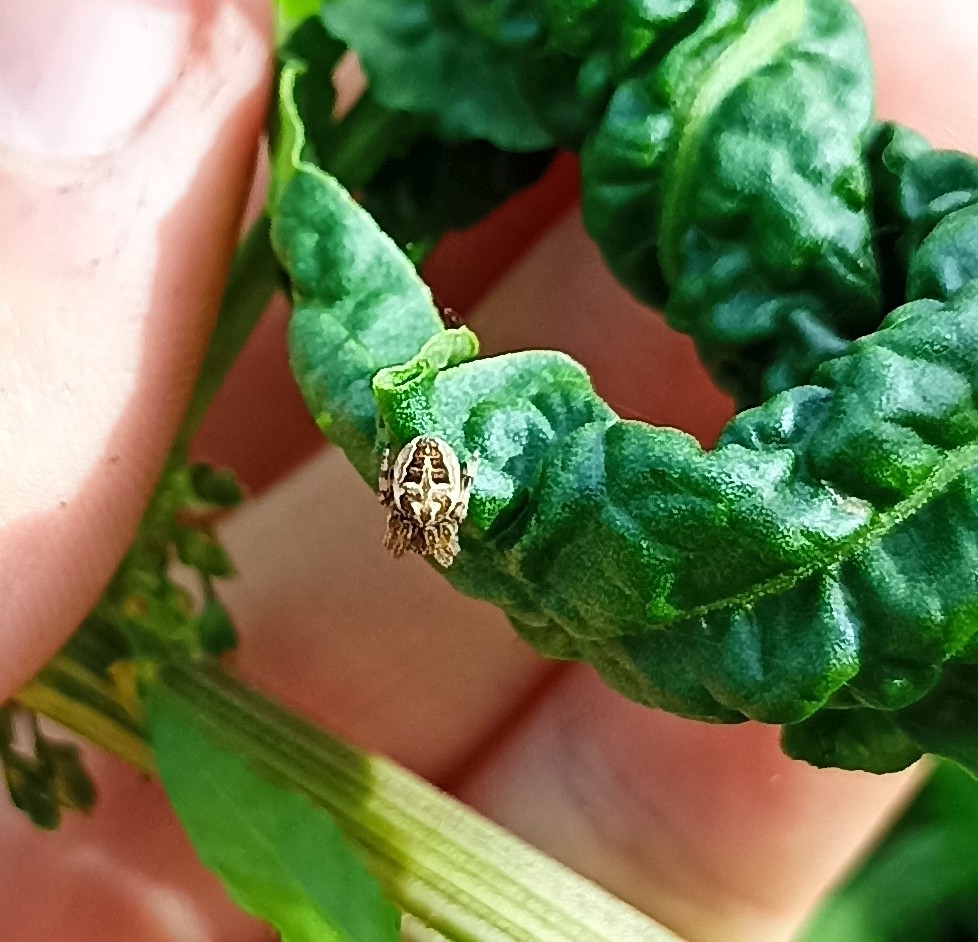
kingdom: Animalia
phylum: Arthropoda
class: Arachnida
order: Araneae
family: Araneidae
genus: Agalenatea
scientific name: Agalenatea redii
